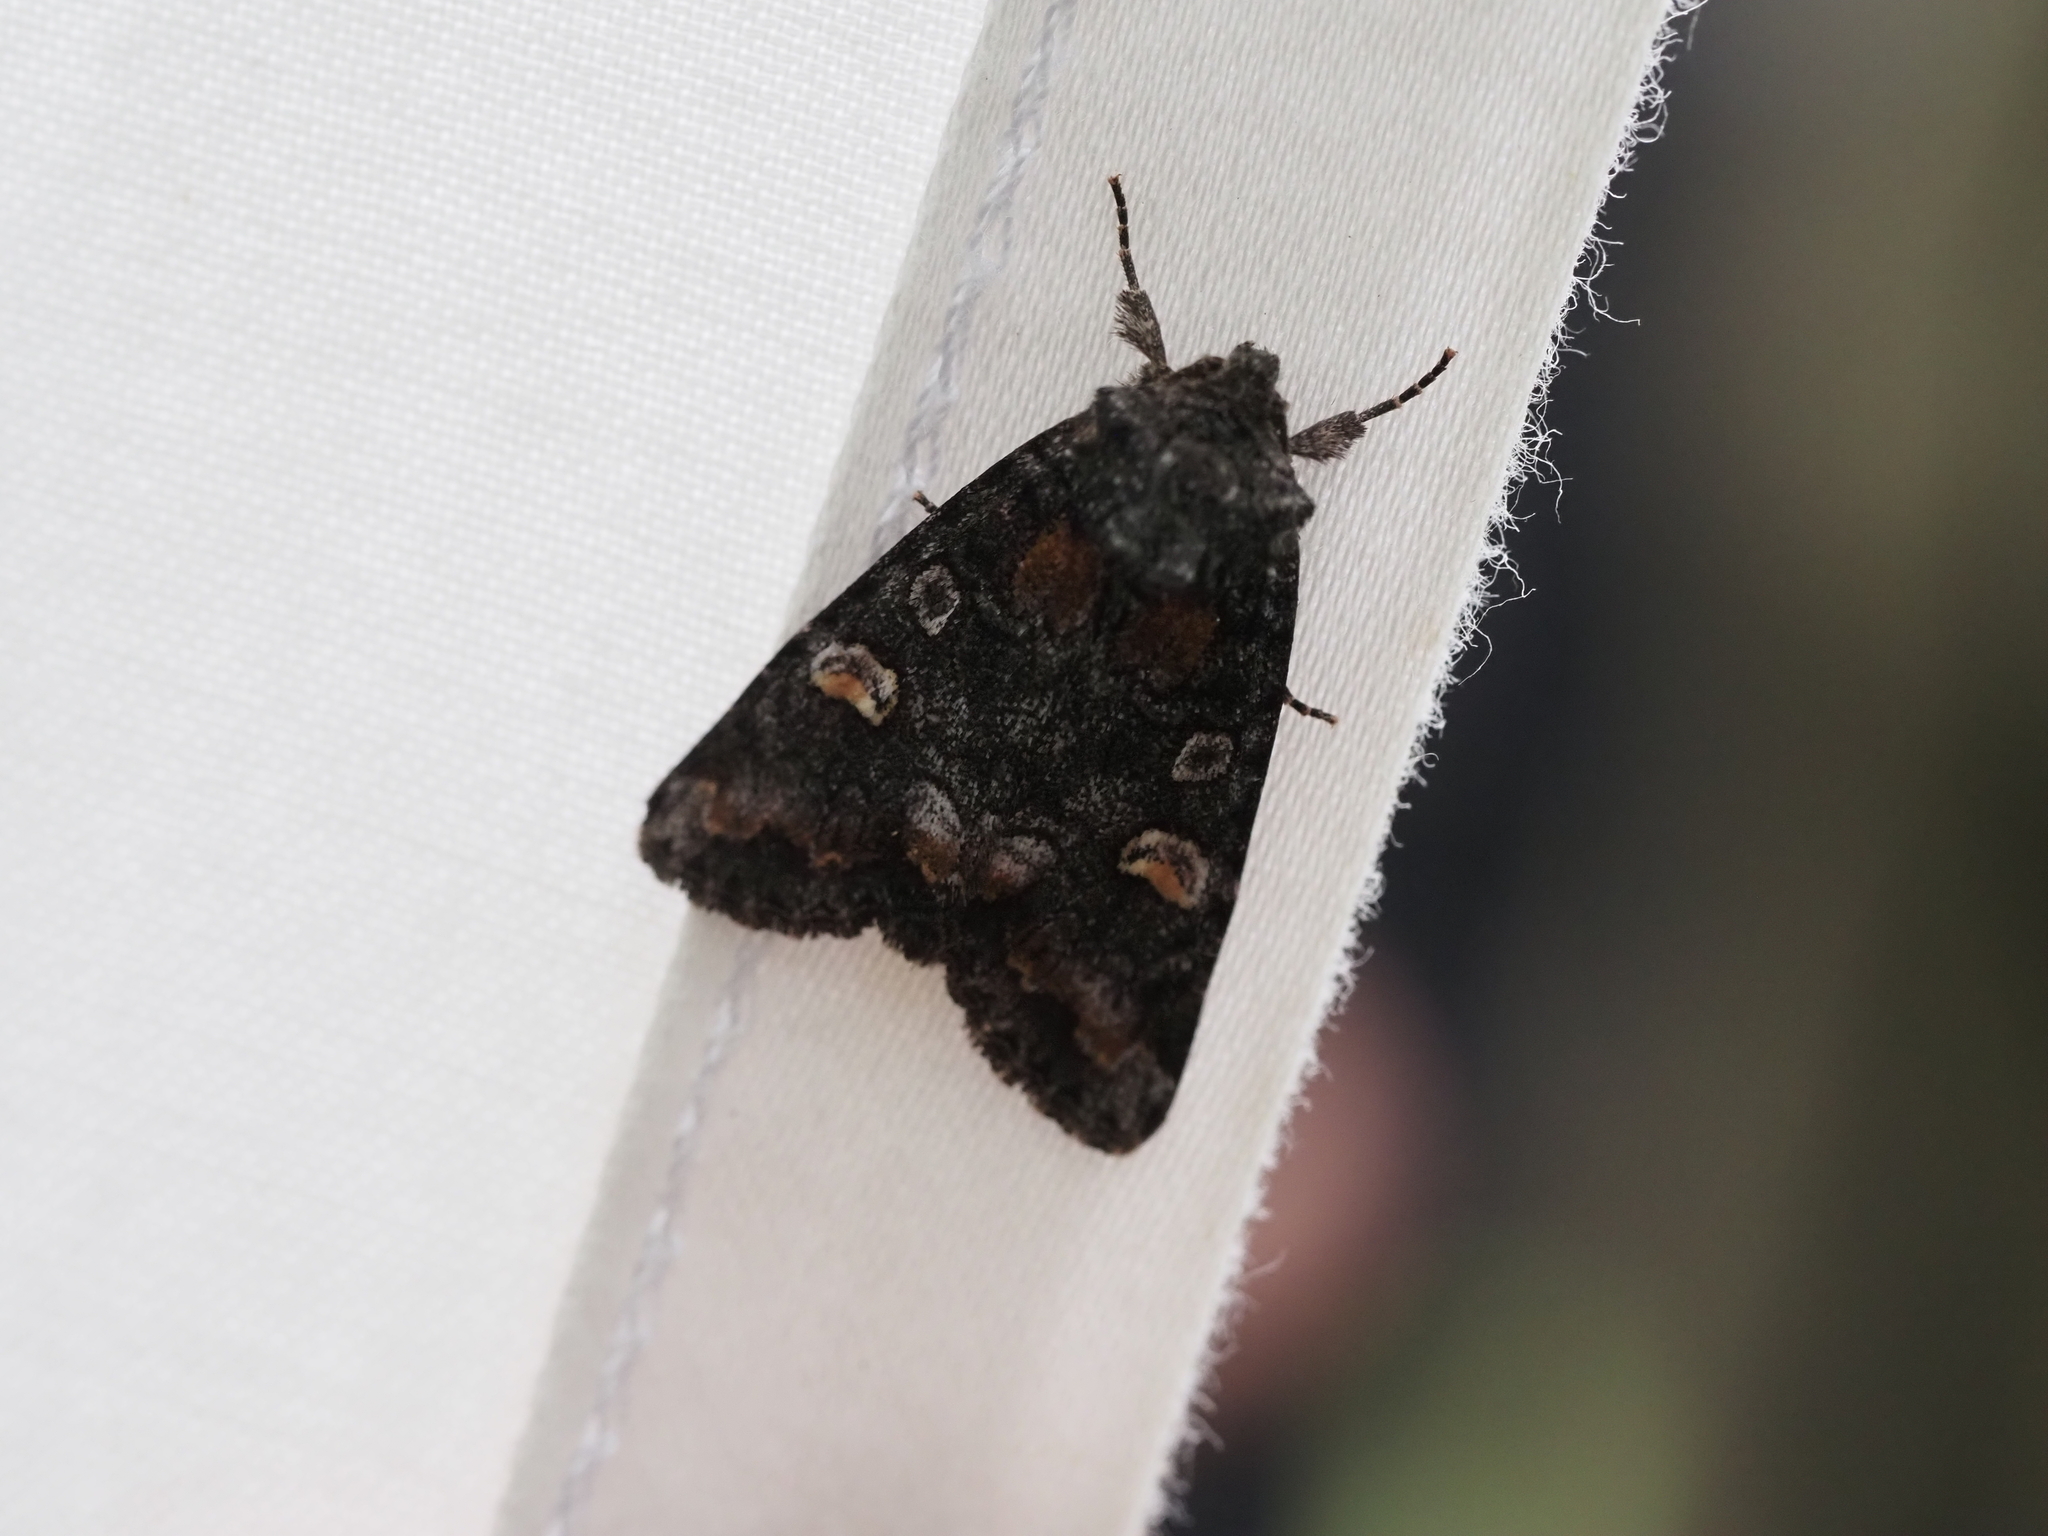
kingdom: Animalia
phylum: Arthropoda
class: Insecta
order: Lepidoptera
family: Noctuidae
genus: Spiramater
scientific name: Spiramater lutra
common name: Otter spiramater moth
